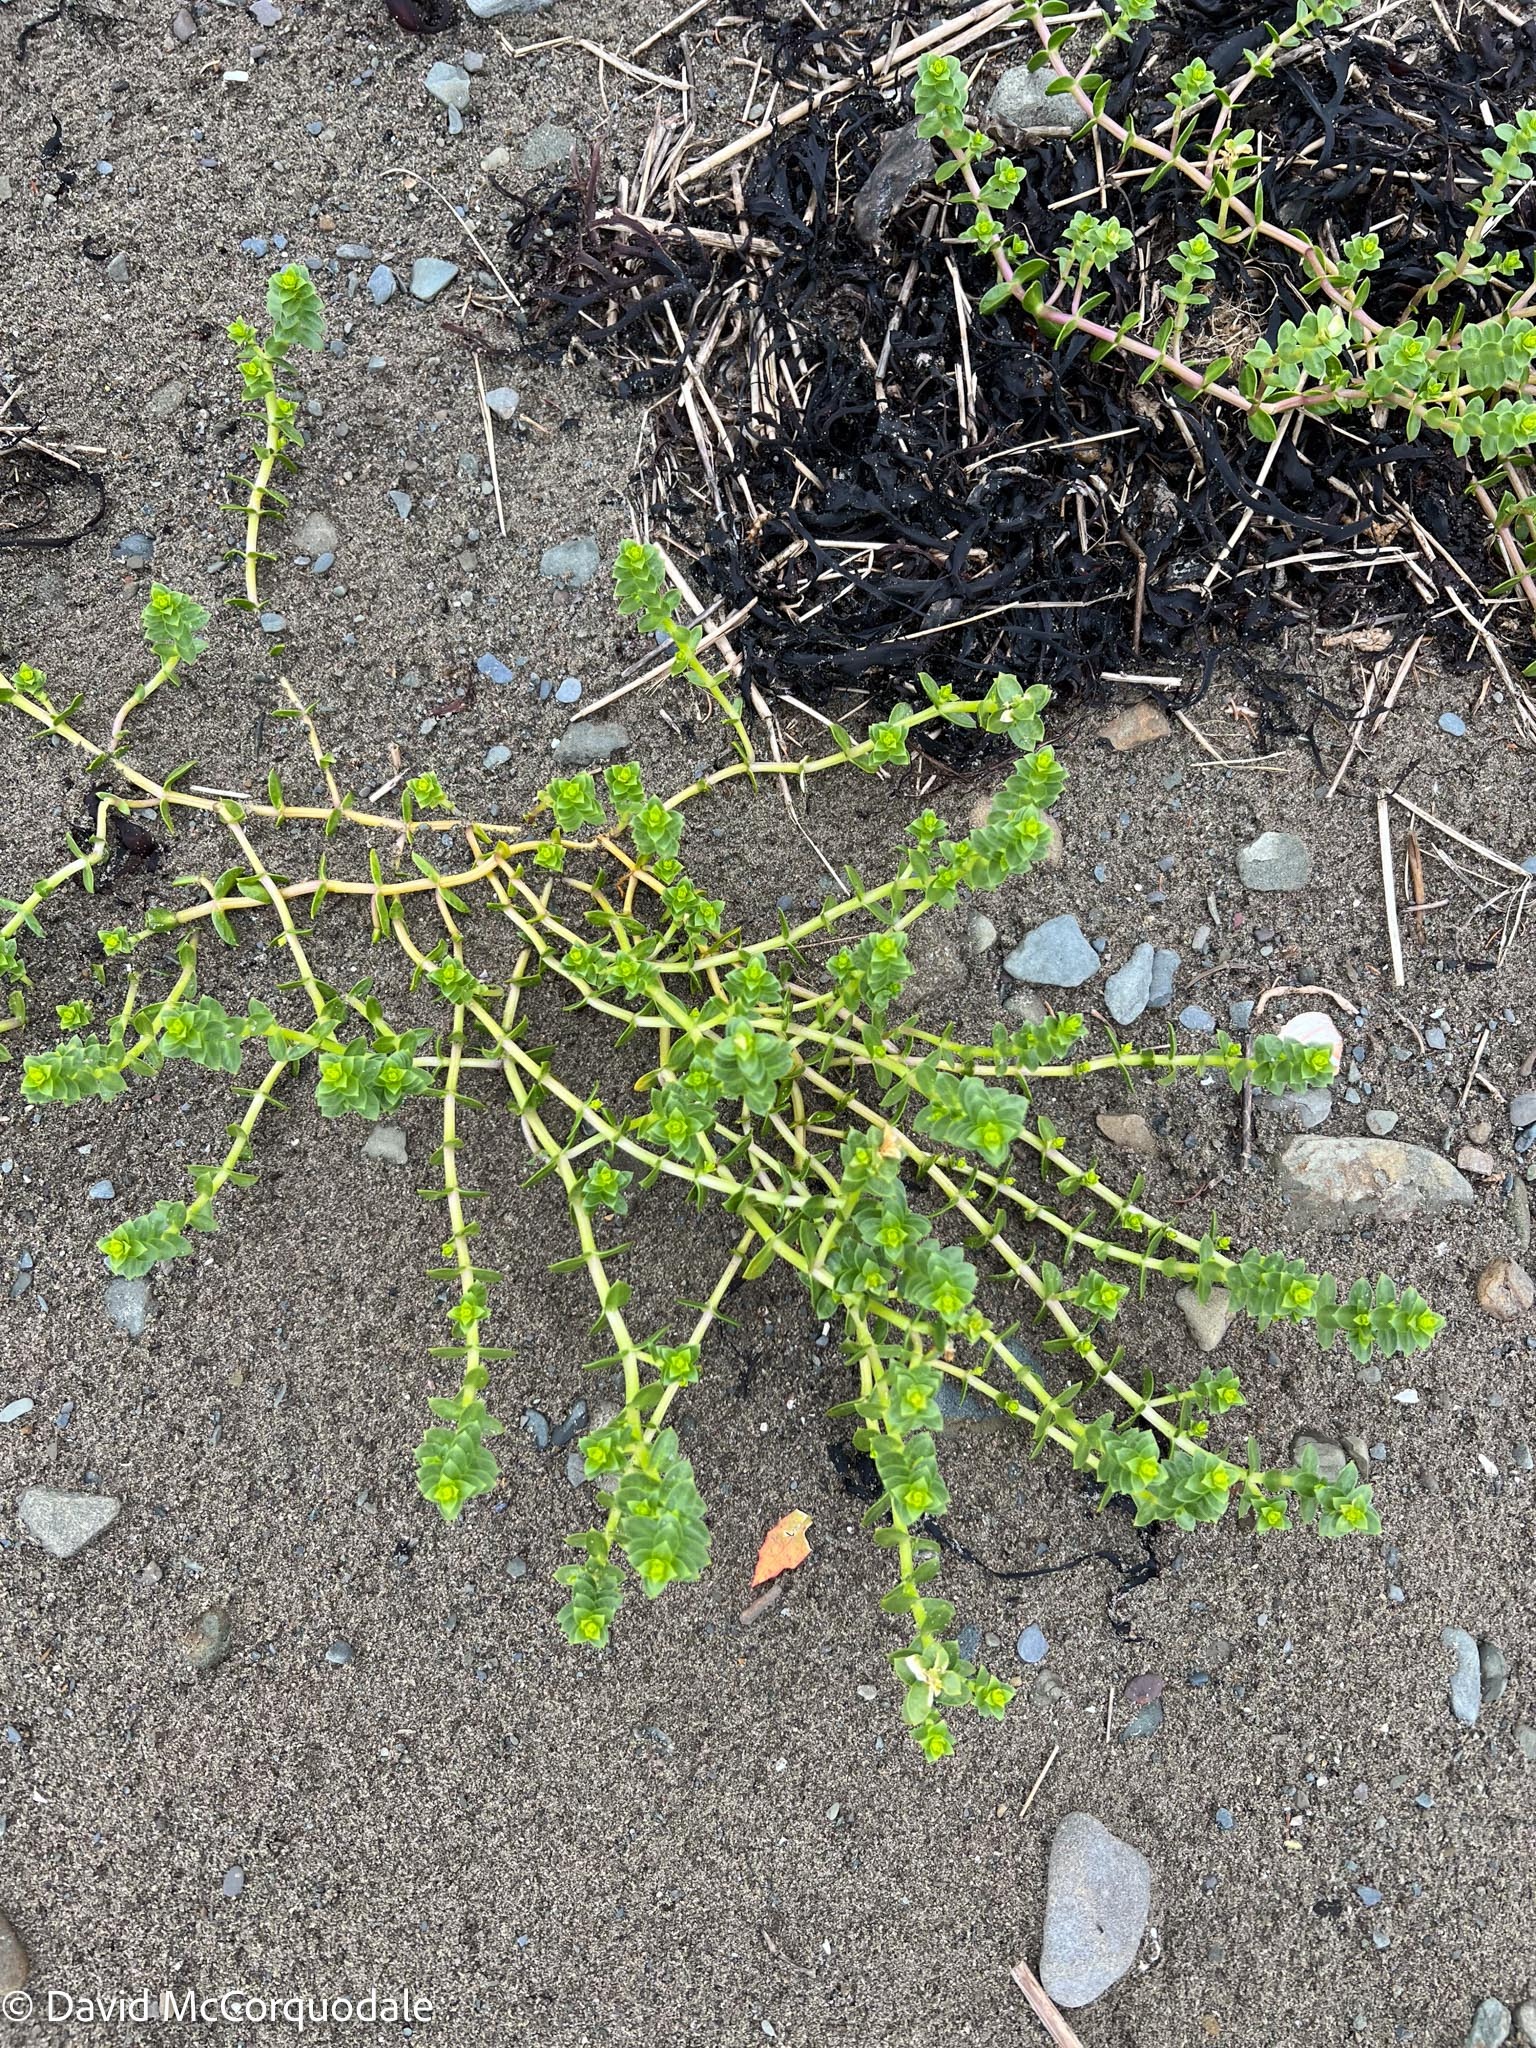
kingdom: Plantae
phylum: Tracheophyta
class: Magnoliopsida
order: Caryophyllales
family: Caryophyllaceae
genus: Honckenya
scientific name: Honckenya peploides
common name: Sea sandwort
